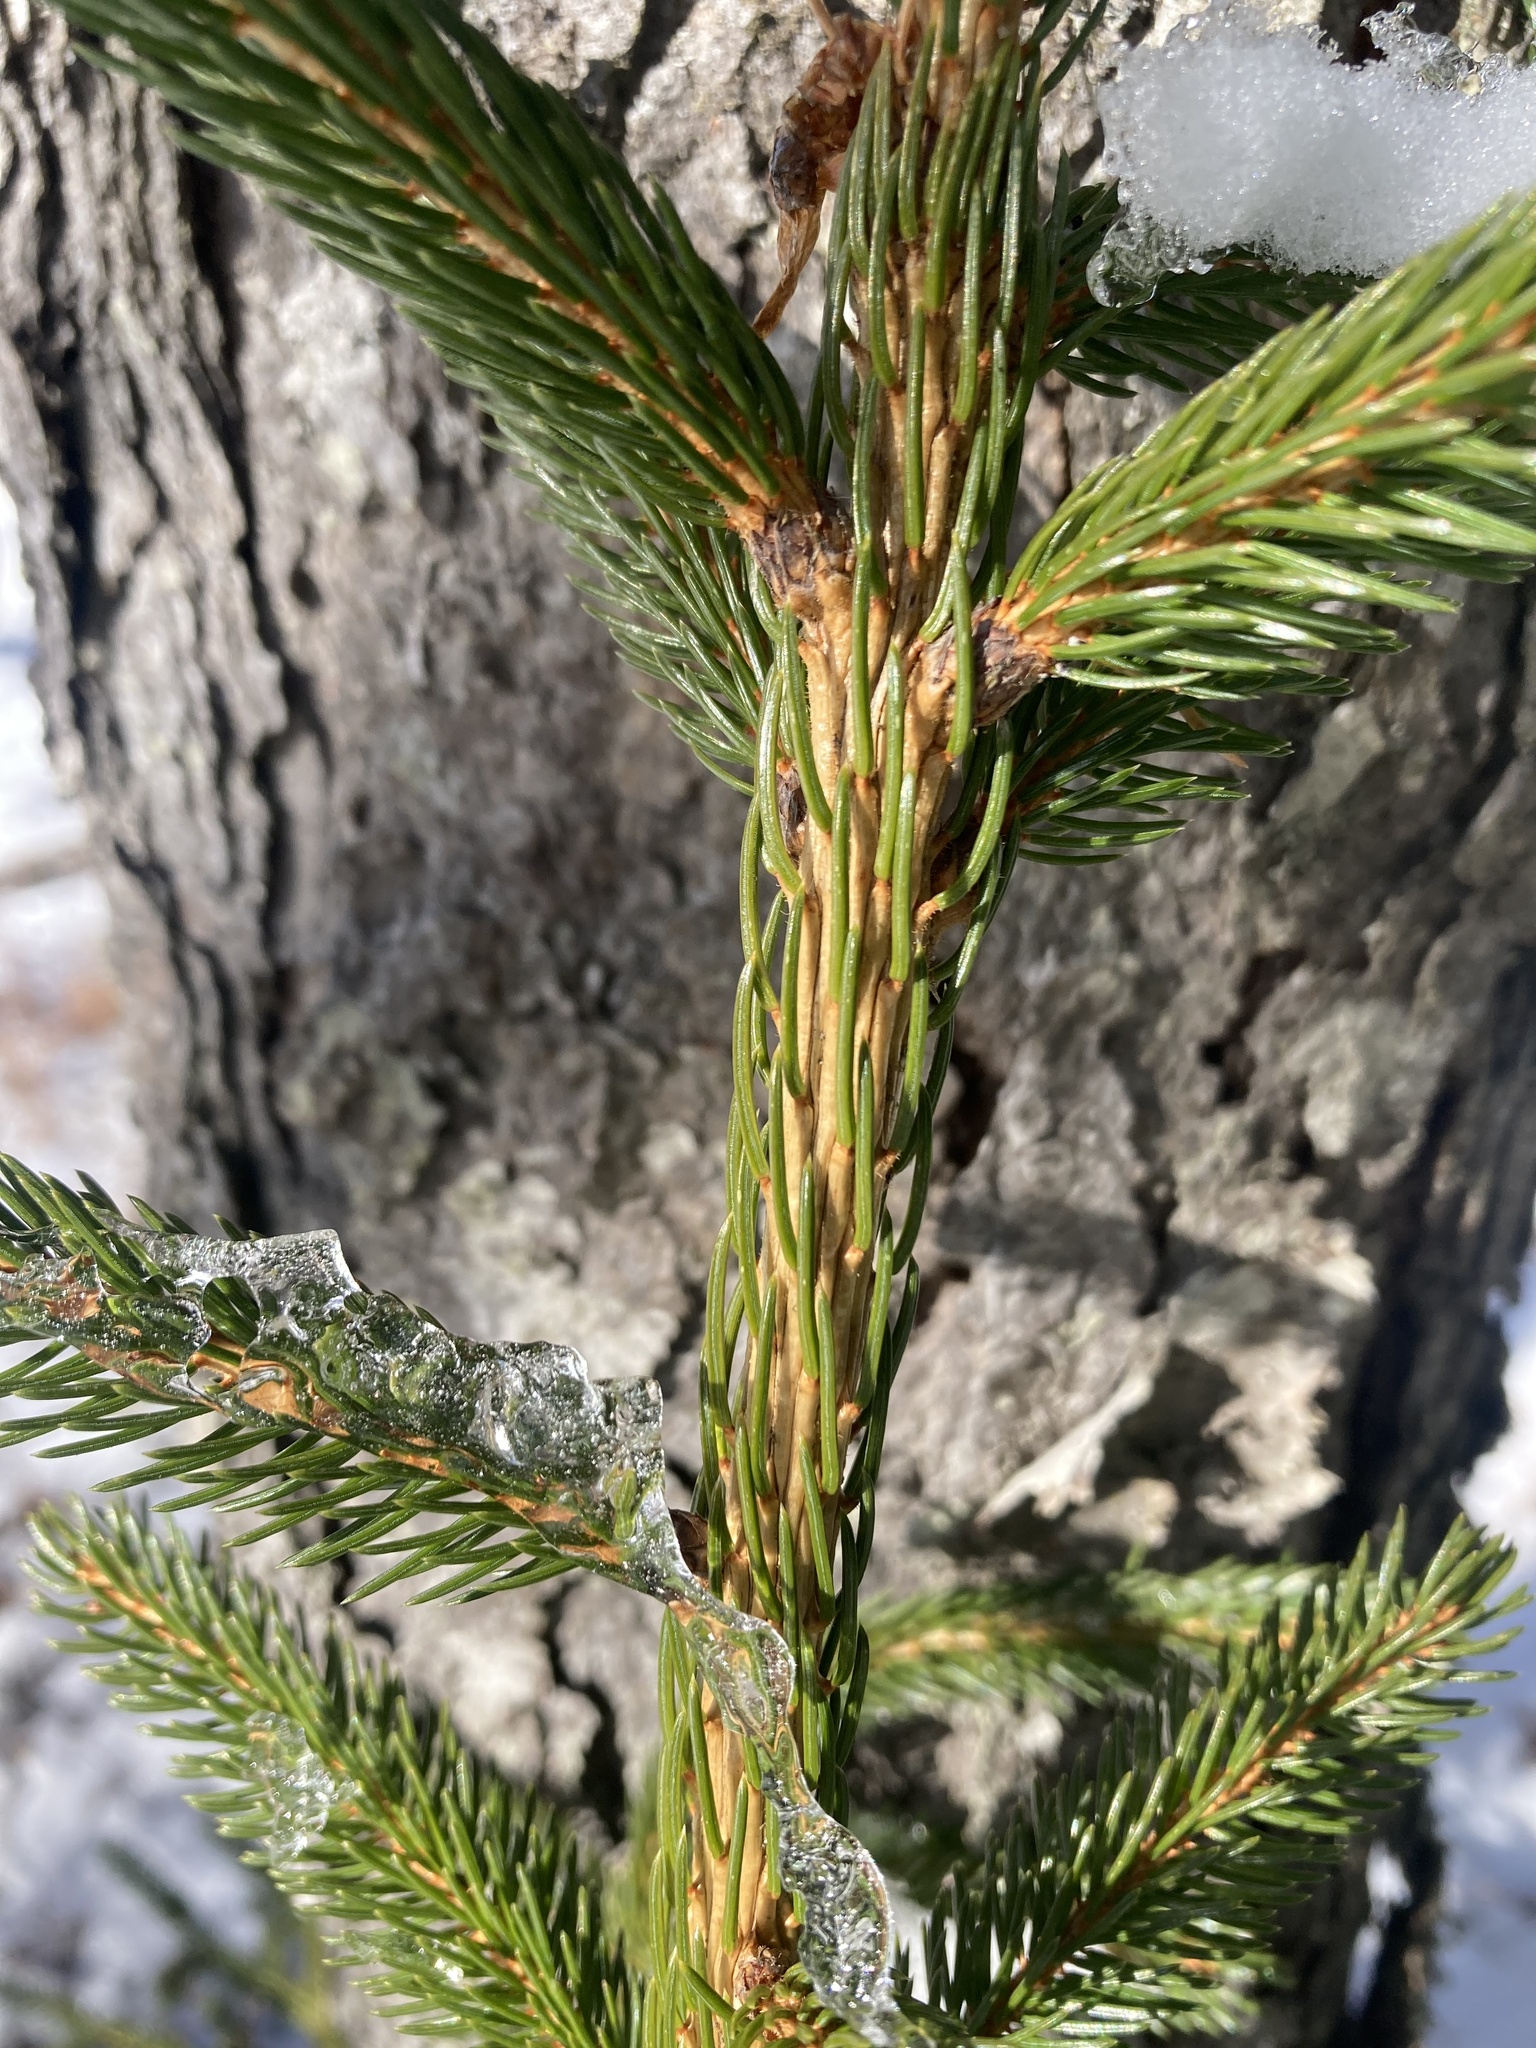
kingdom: Plantae
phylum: Tracheophyta
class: Pinopsida
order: Pinales
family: Pinaceae
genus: Picea
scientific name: Picea rubens
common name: Red spruce
